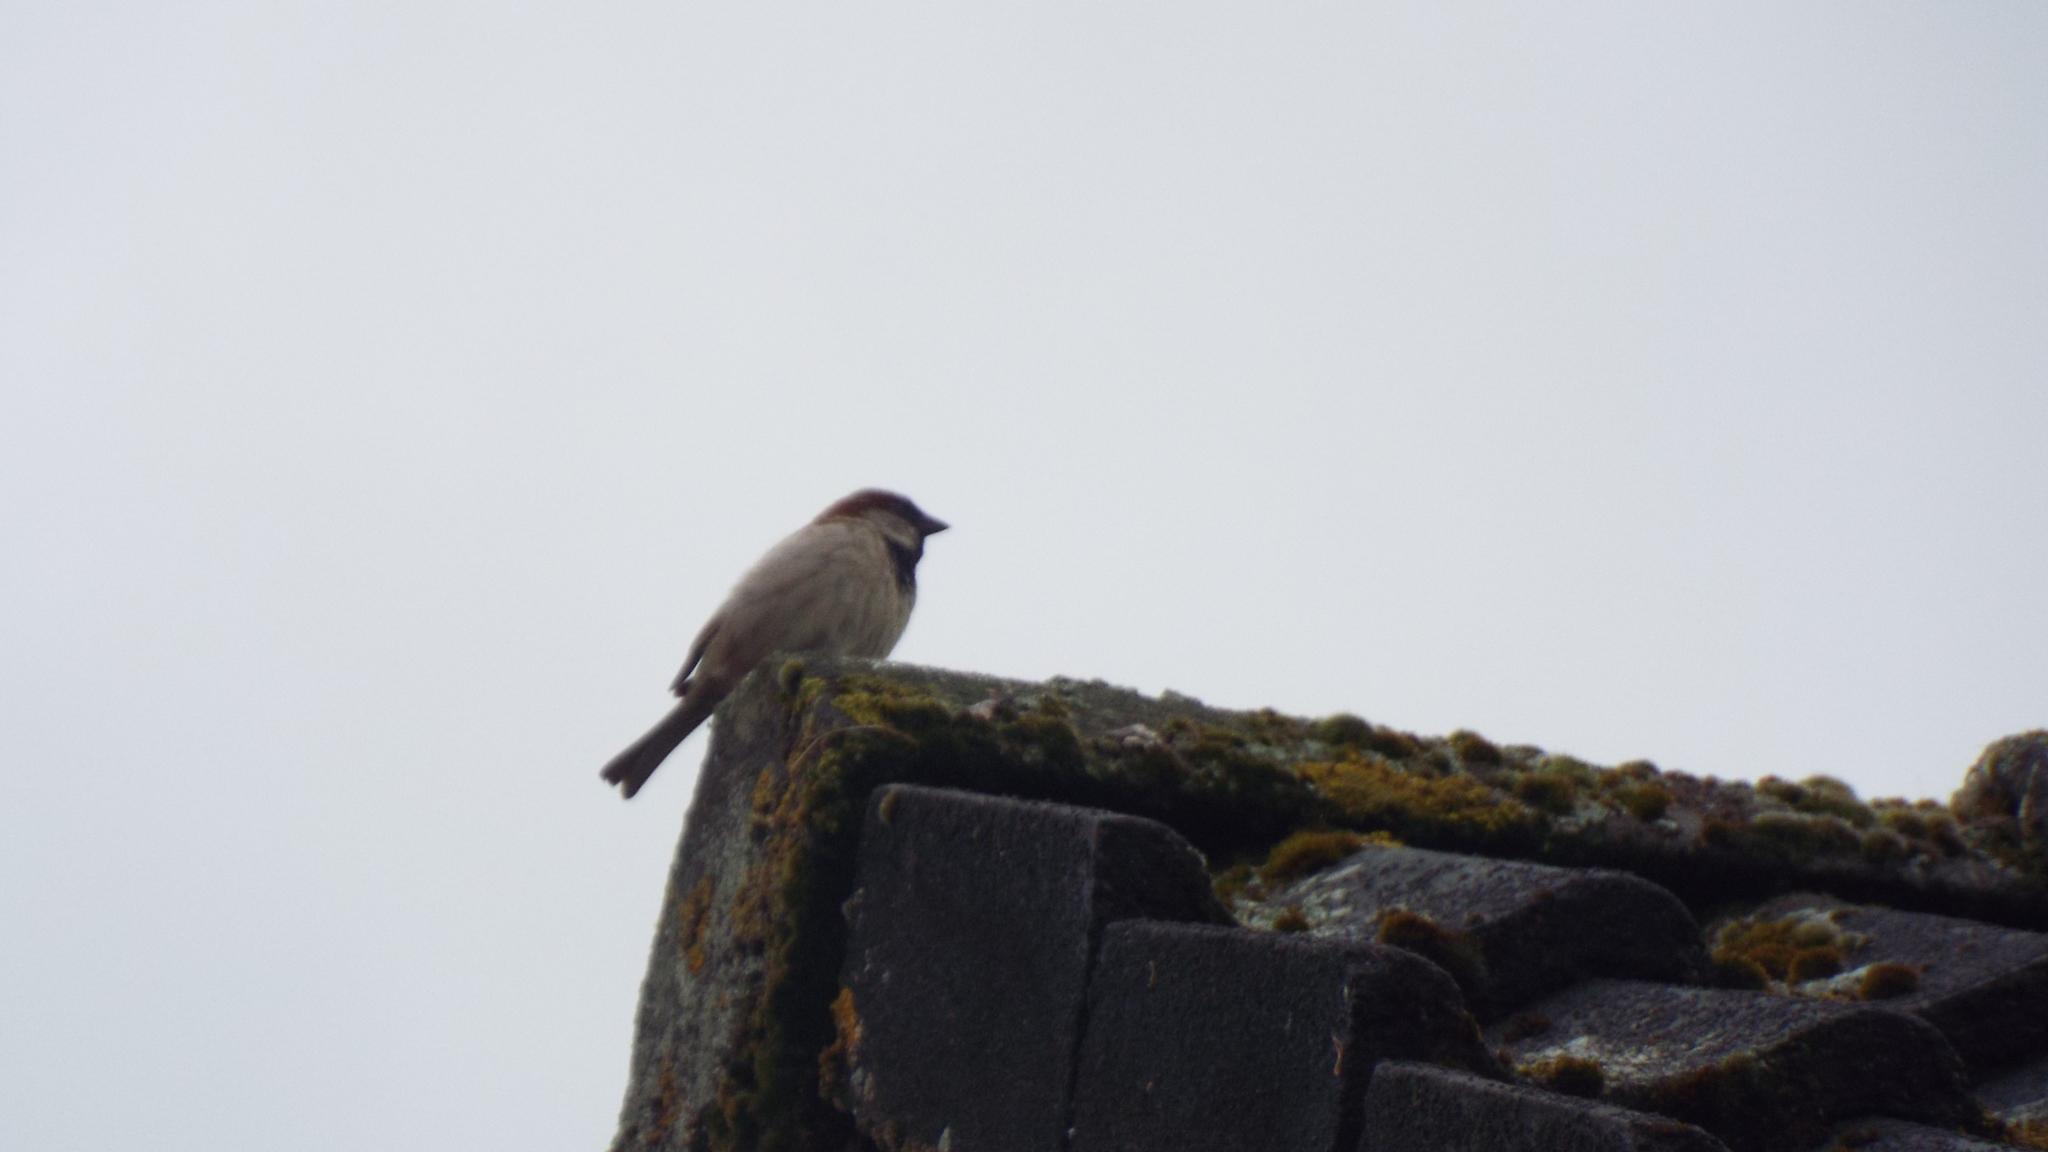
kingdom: Animalia
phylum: Chordata
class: Aves
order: Passeriformes
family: Passeridae
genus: Passer
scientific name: Passer domesticus
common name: House sparrow
